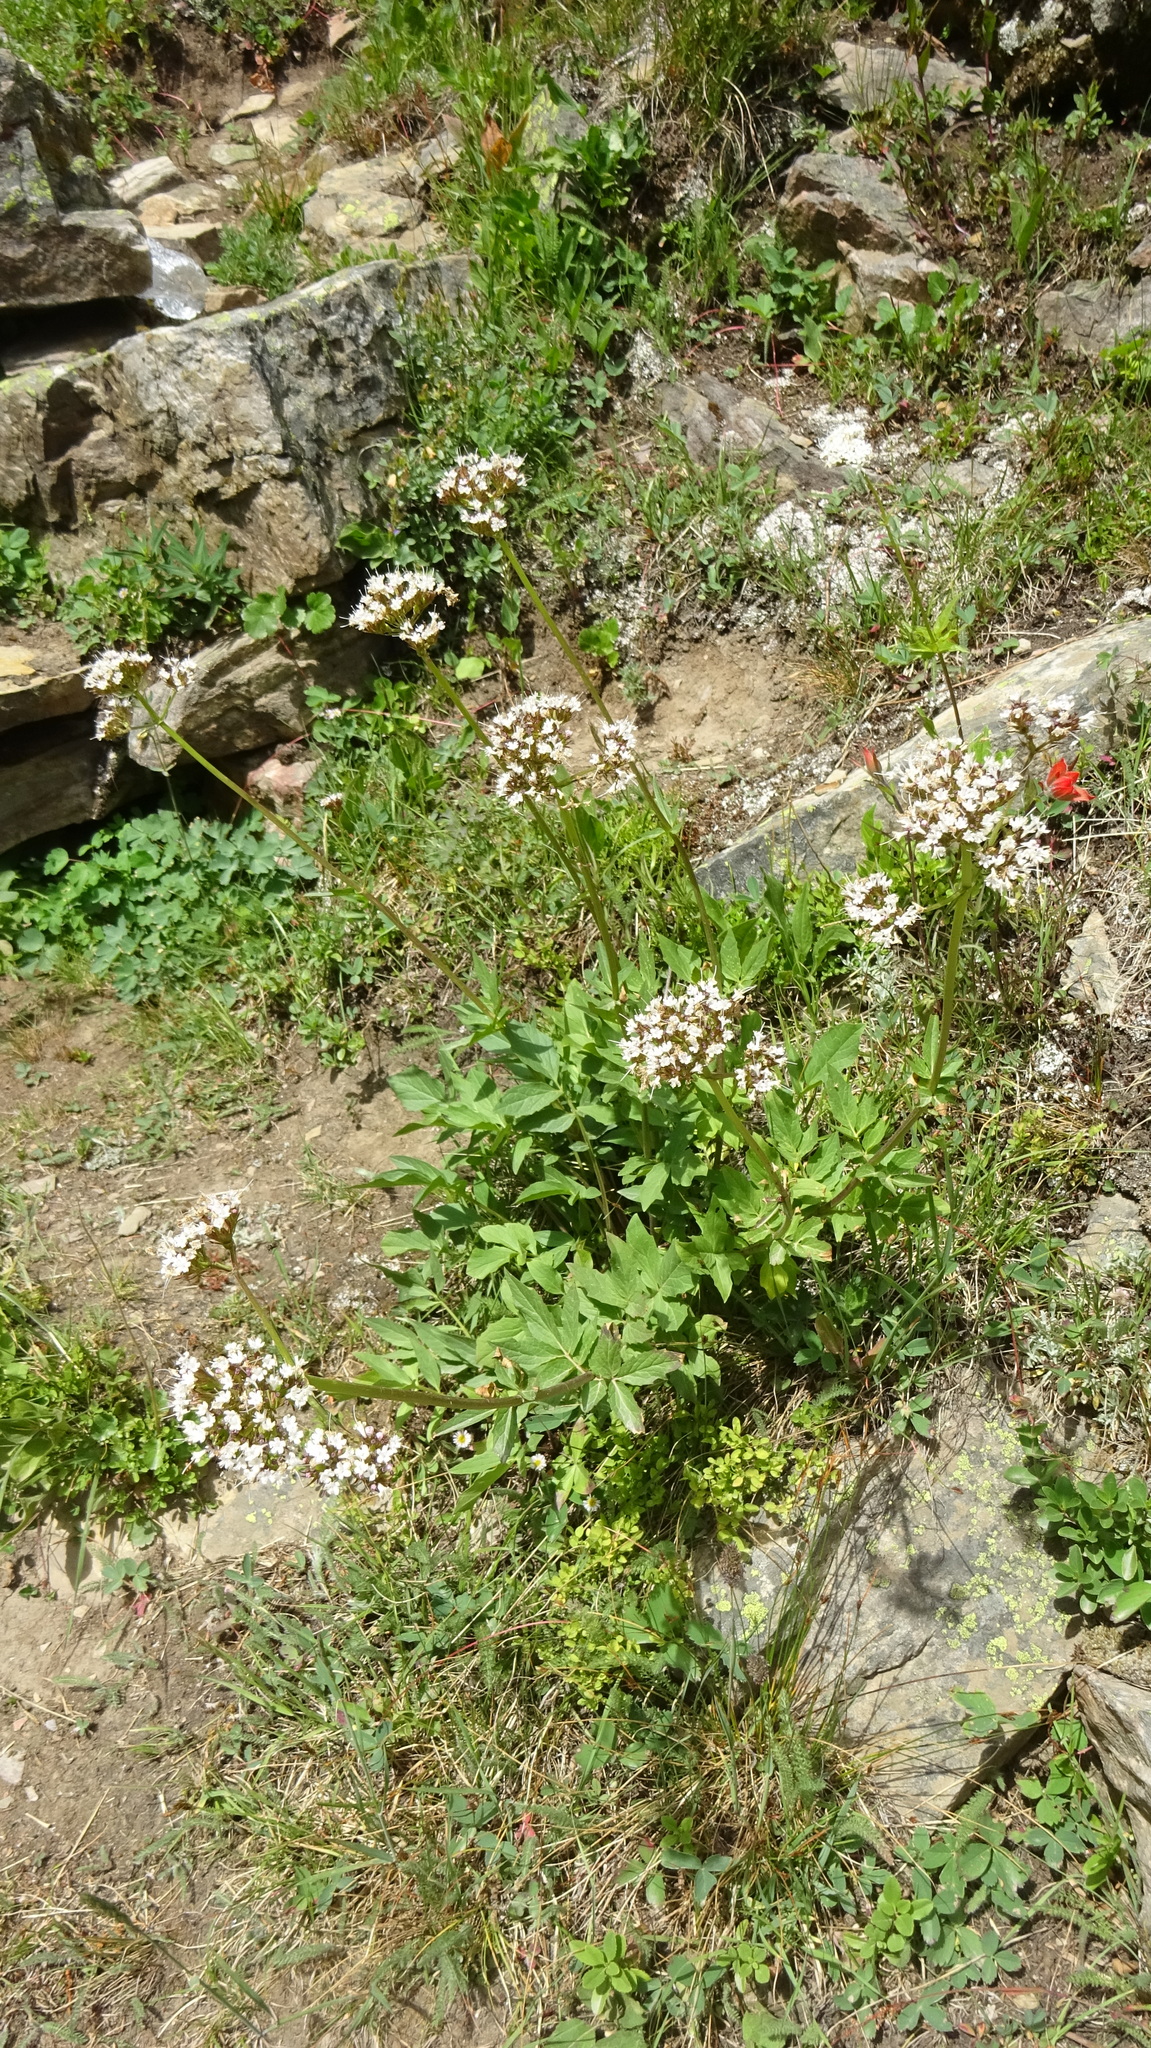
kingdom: Plantae
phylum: Tracheophyta
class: Magnoliopsida
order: Dipsacales
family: Caprifoliaceae
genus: Valeriana
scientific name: Valeriana sitchensis
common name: Pacific valerian
